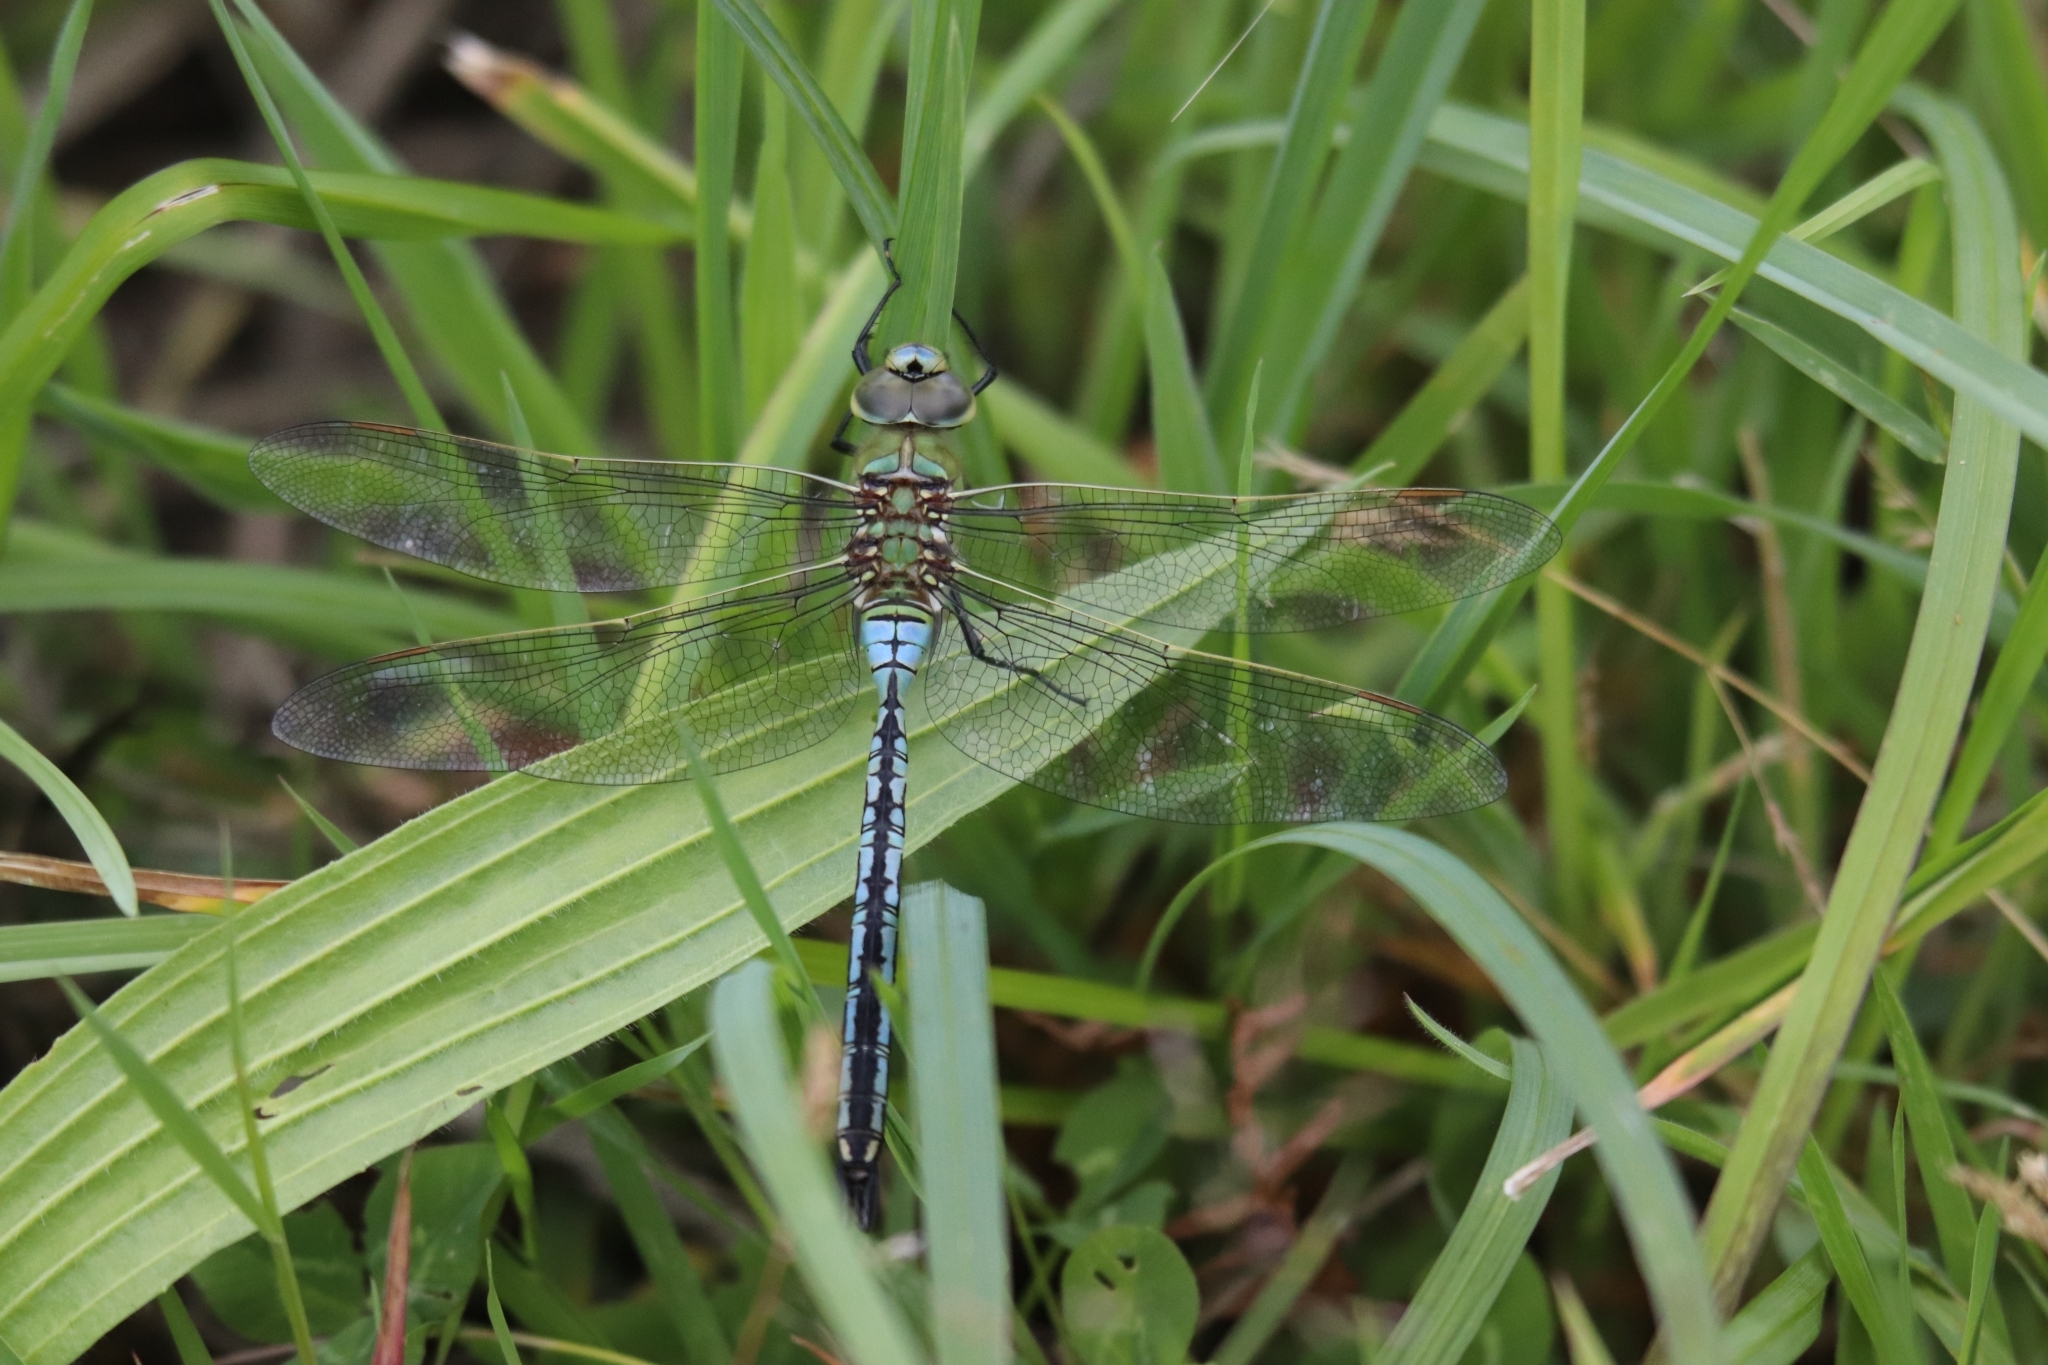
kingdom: Animalia
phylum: Arthropoda
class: Insecta
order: Odonata
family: Aeshnidae
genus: Anax
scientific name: Anax imperator
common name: Emperor dragonfly
